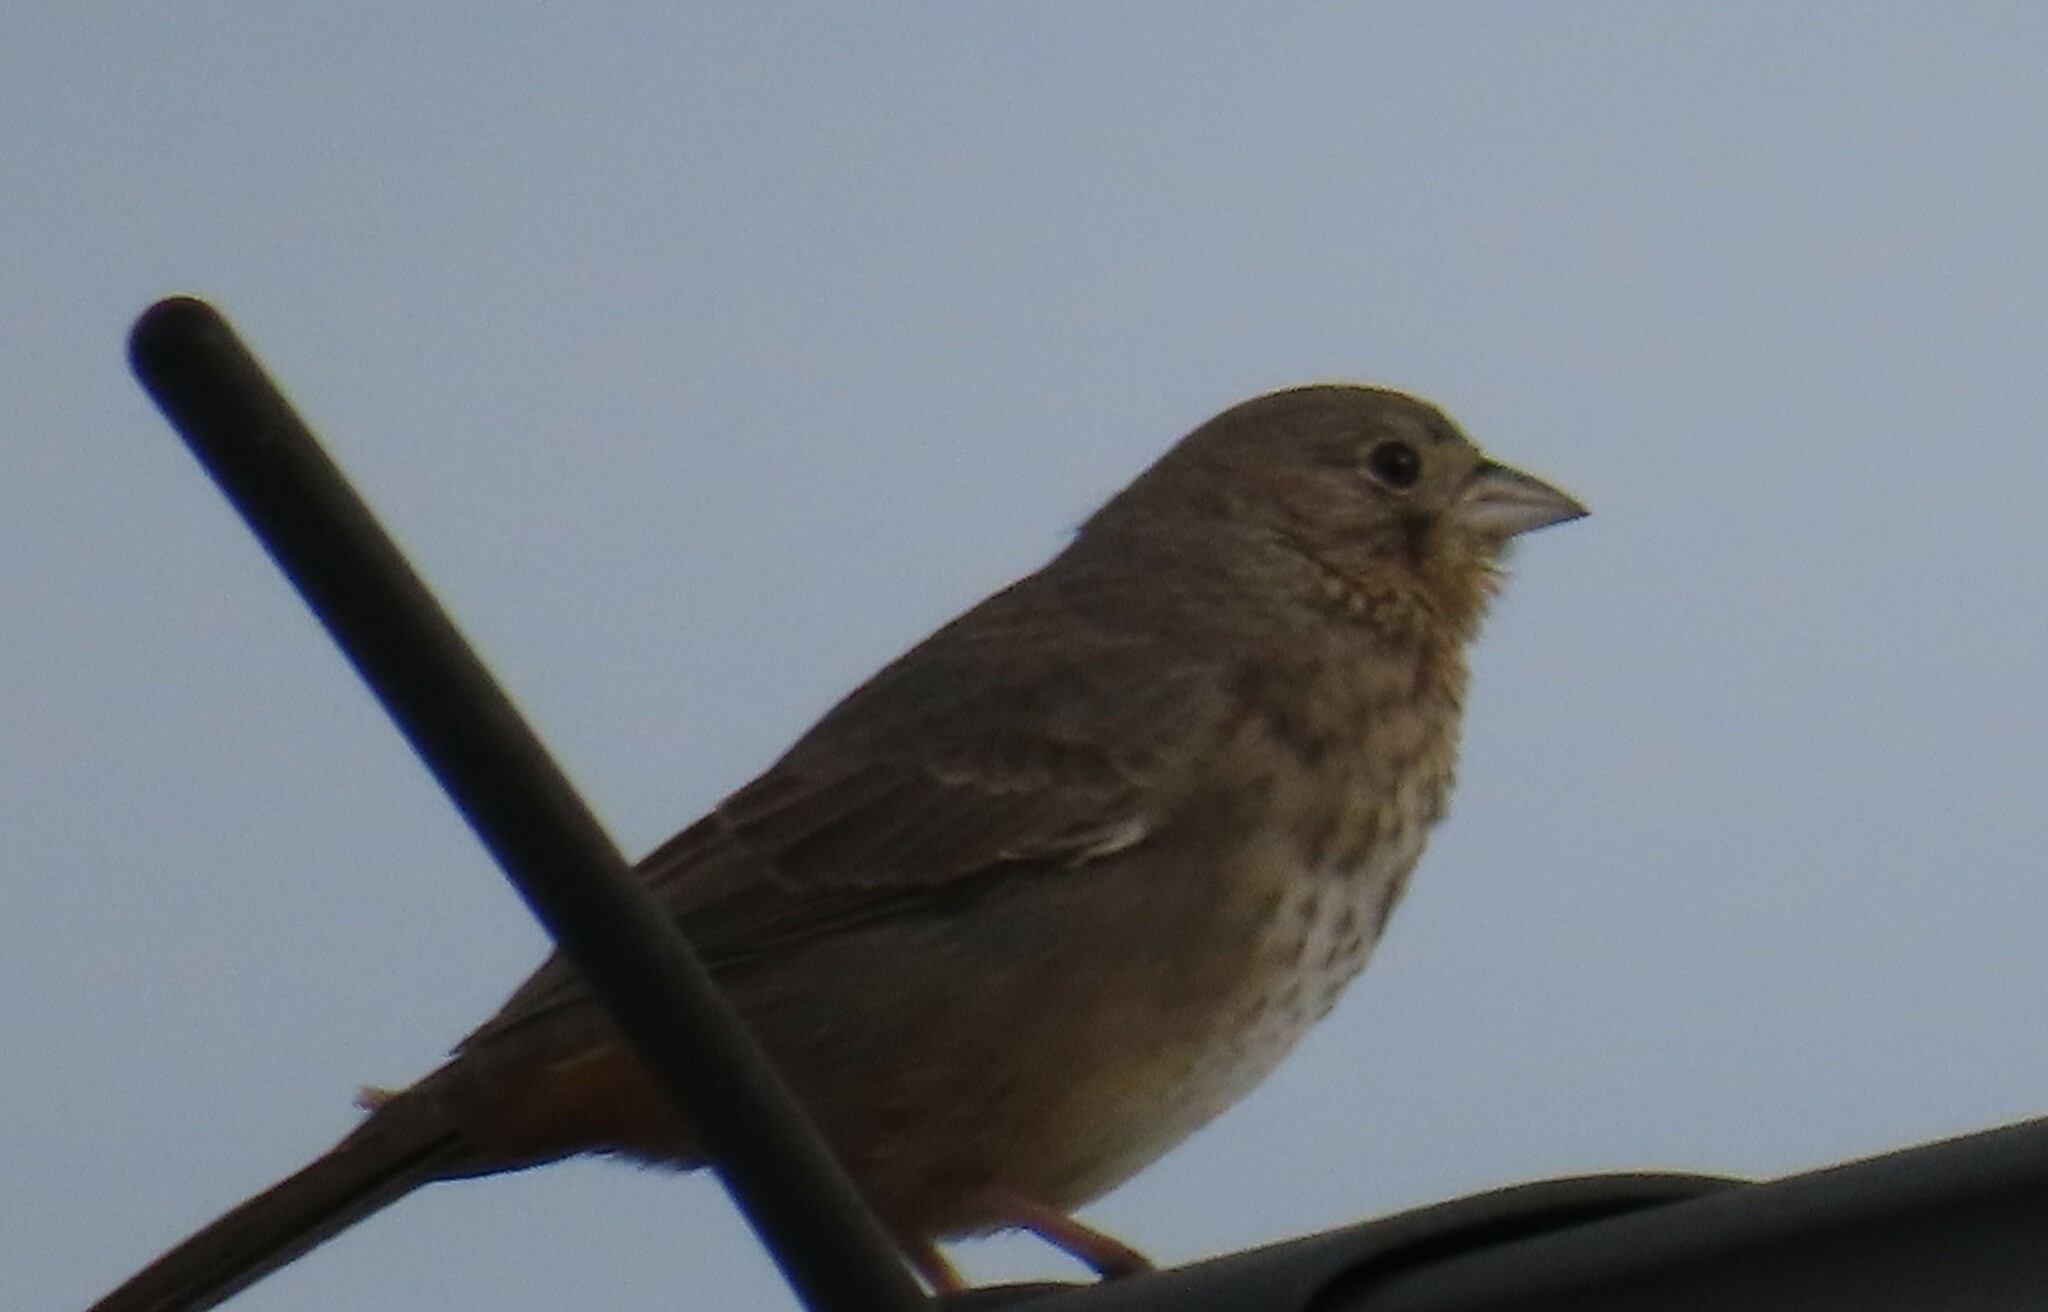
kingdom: Animalia
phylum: Chordata
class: Aves
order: Passeriformes
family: Passerellidae
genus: Melozone
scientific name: Melozone fusca
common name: Canyon towhee
